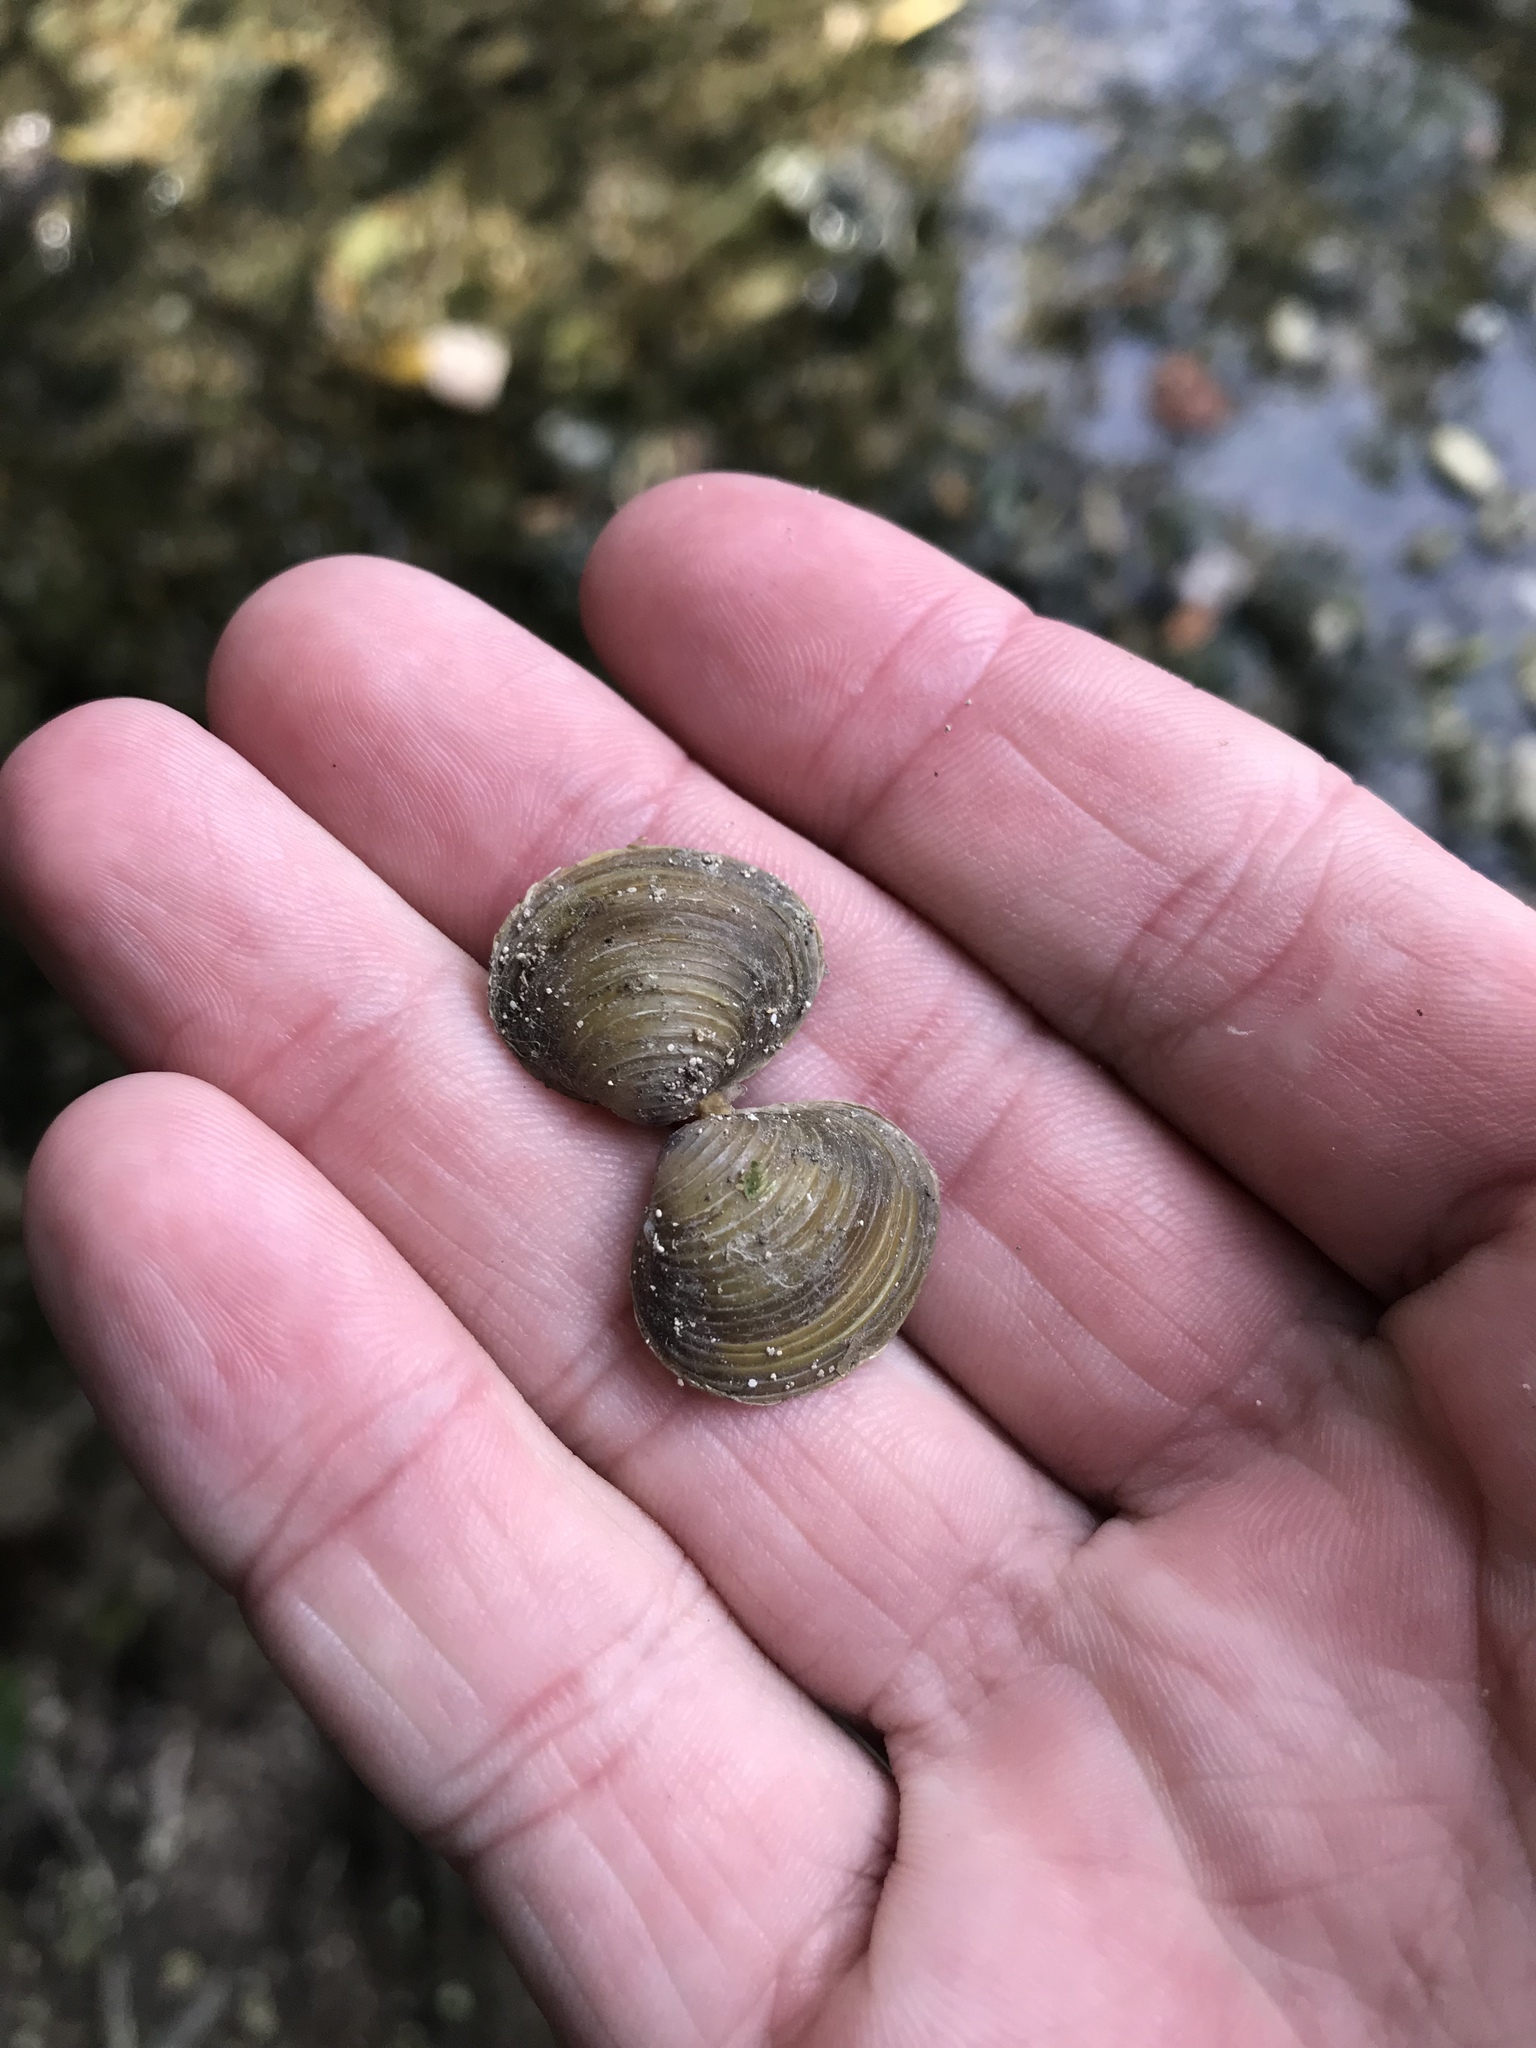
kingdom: Animalia
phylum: Mollusca
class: Bivalvia
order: Venerida
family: Cyrenidae
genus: Corbicula
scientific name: Corbicula fluminea
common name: Asian clam
